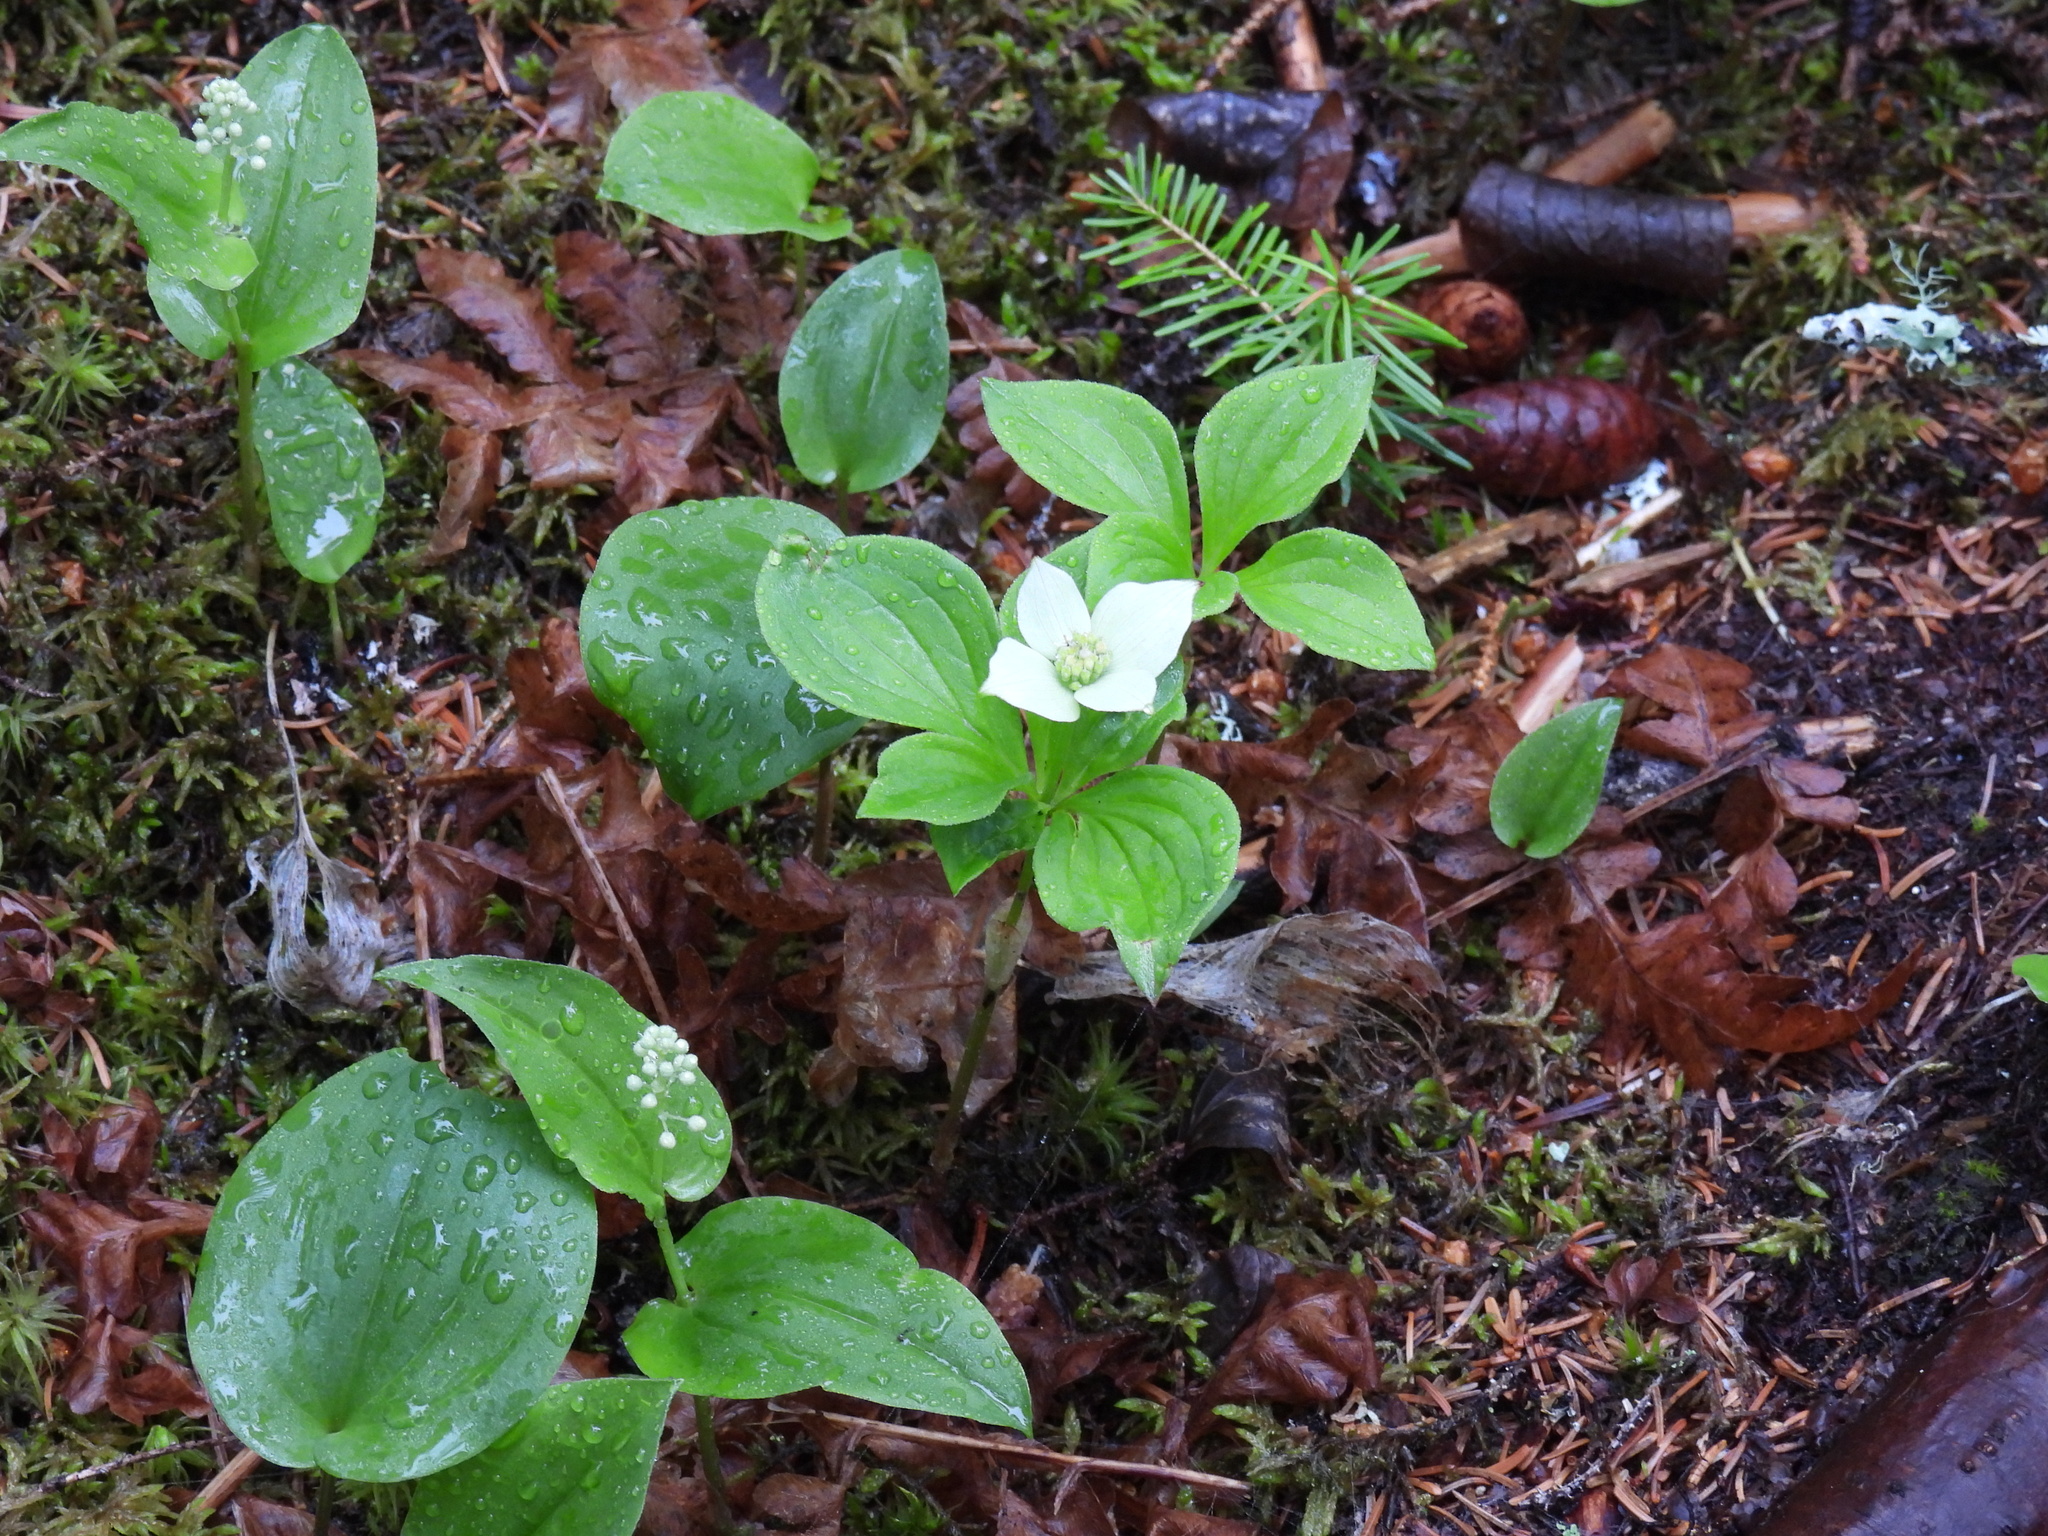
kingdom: Plantae
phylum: Tracheophyta
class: Magnoliopsida
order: Cornales
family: Cornaceae
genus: Cornus
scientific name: Cornus canadensis
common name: Creeping dogwood
